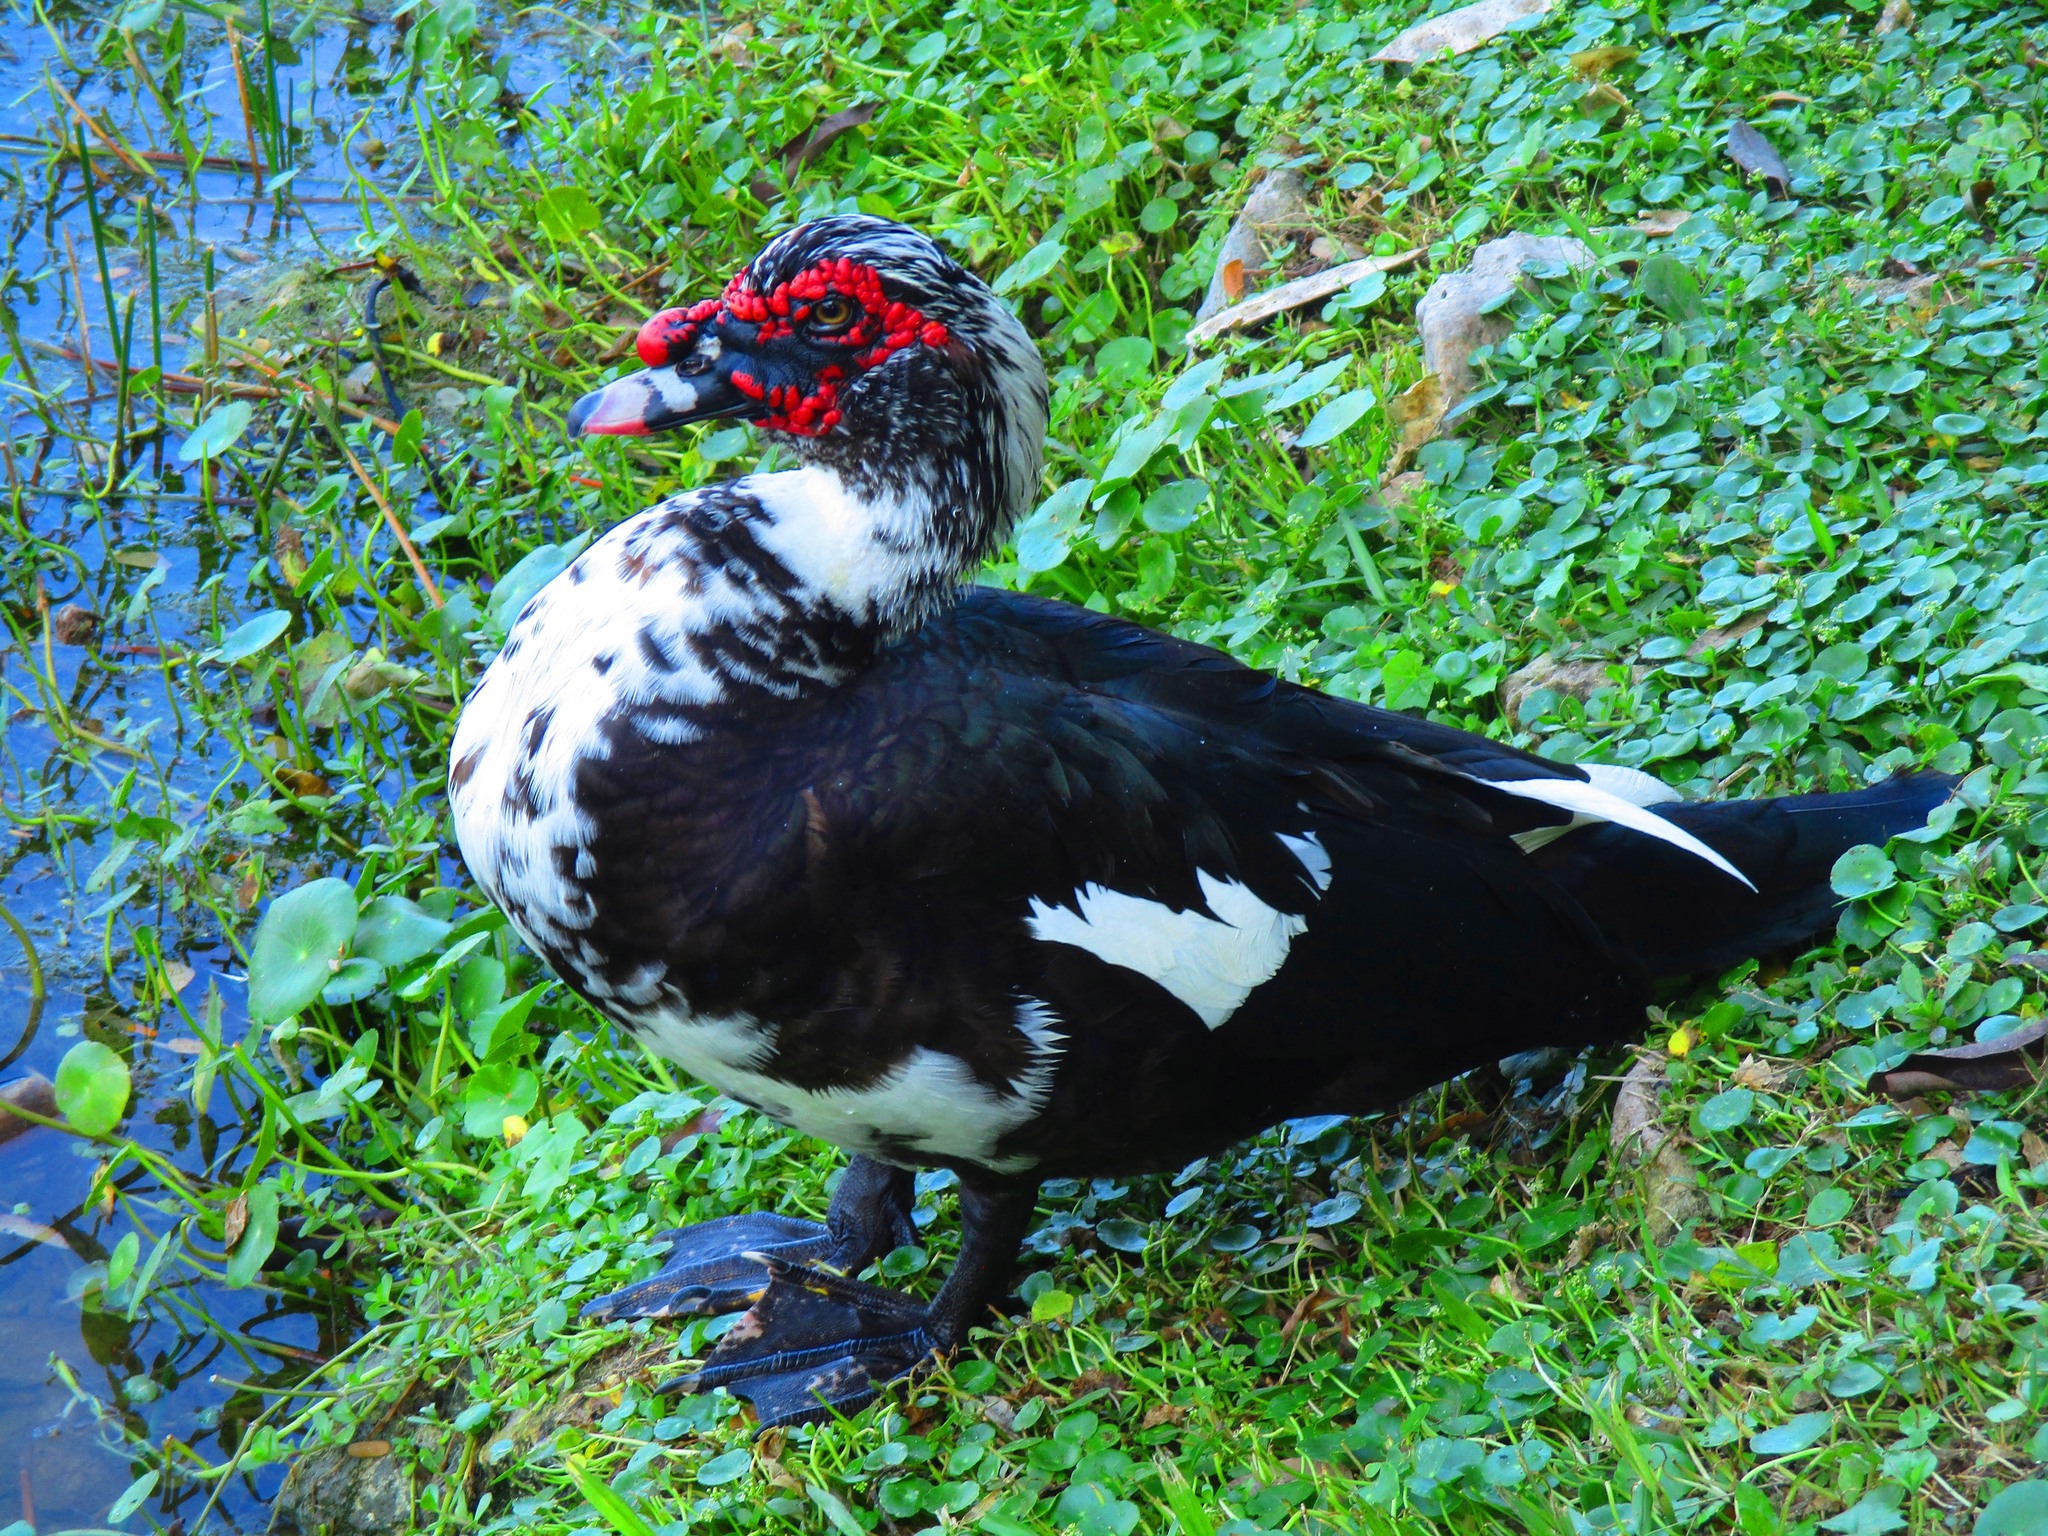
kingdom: Animalia
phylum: Chordata
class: Aves
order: Anseriformes
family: Anatidae
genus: Cairina
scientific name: Cairina moschata
